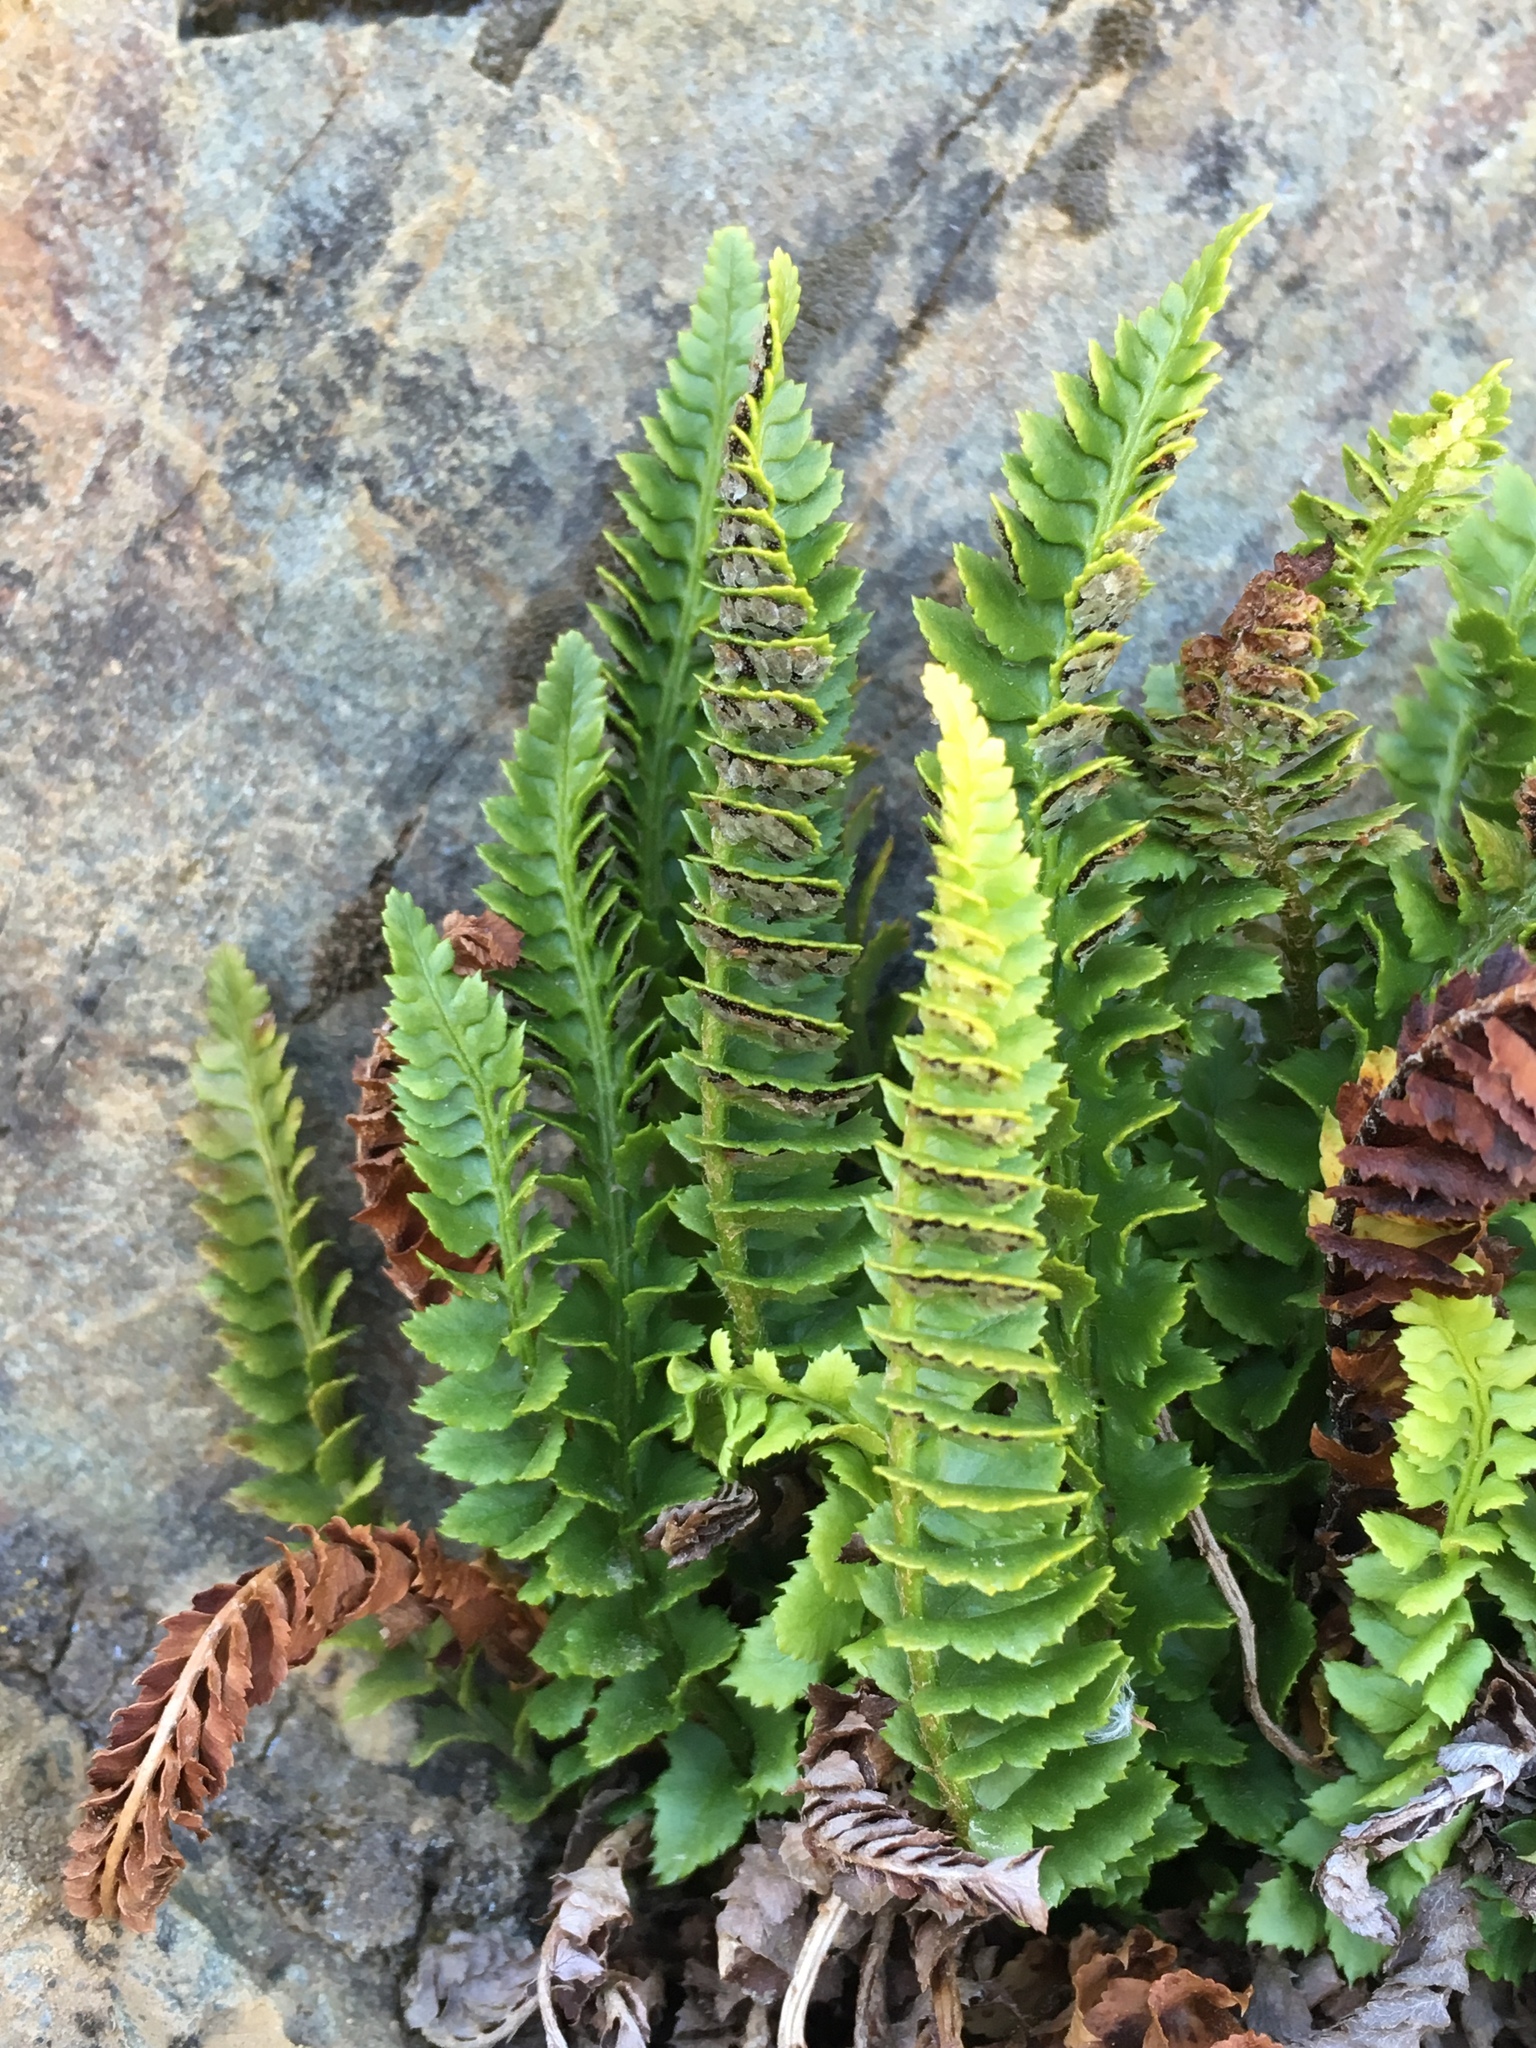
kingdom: Plantae
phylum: Tracheophyta
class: Polypodiopsida
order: Polypodiales
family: Dryopteridaceae
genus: Polystichum
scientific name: Polystichum kruckebergii
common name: Kruckeberg's holly fern
